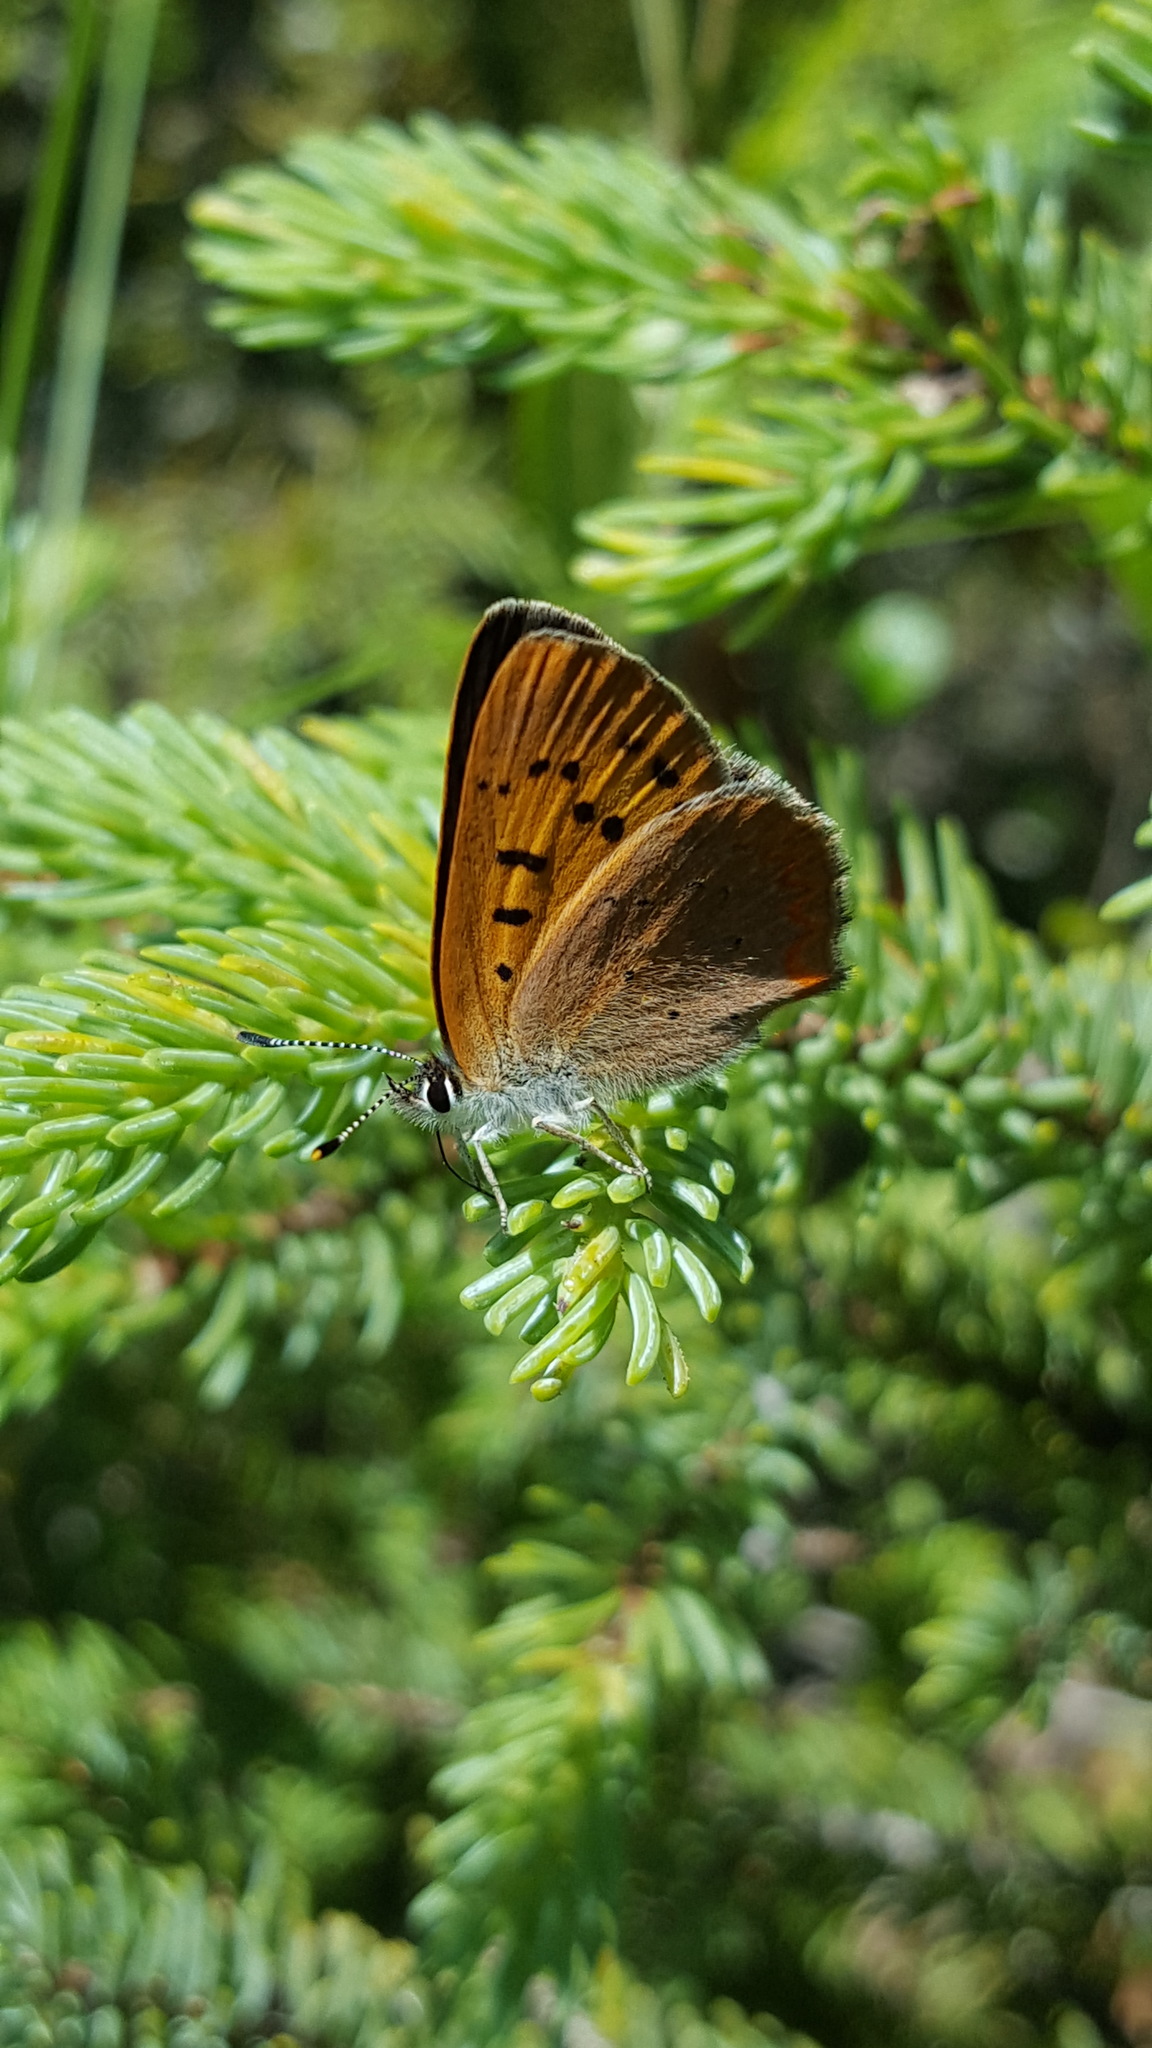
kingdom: Animalia
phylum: Arthropoda
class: Insecta
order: Lepidoptera
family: Lycaenidae
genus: Tharsalea
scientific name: Tharsalea dorcas
